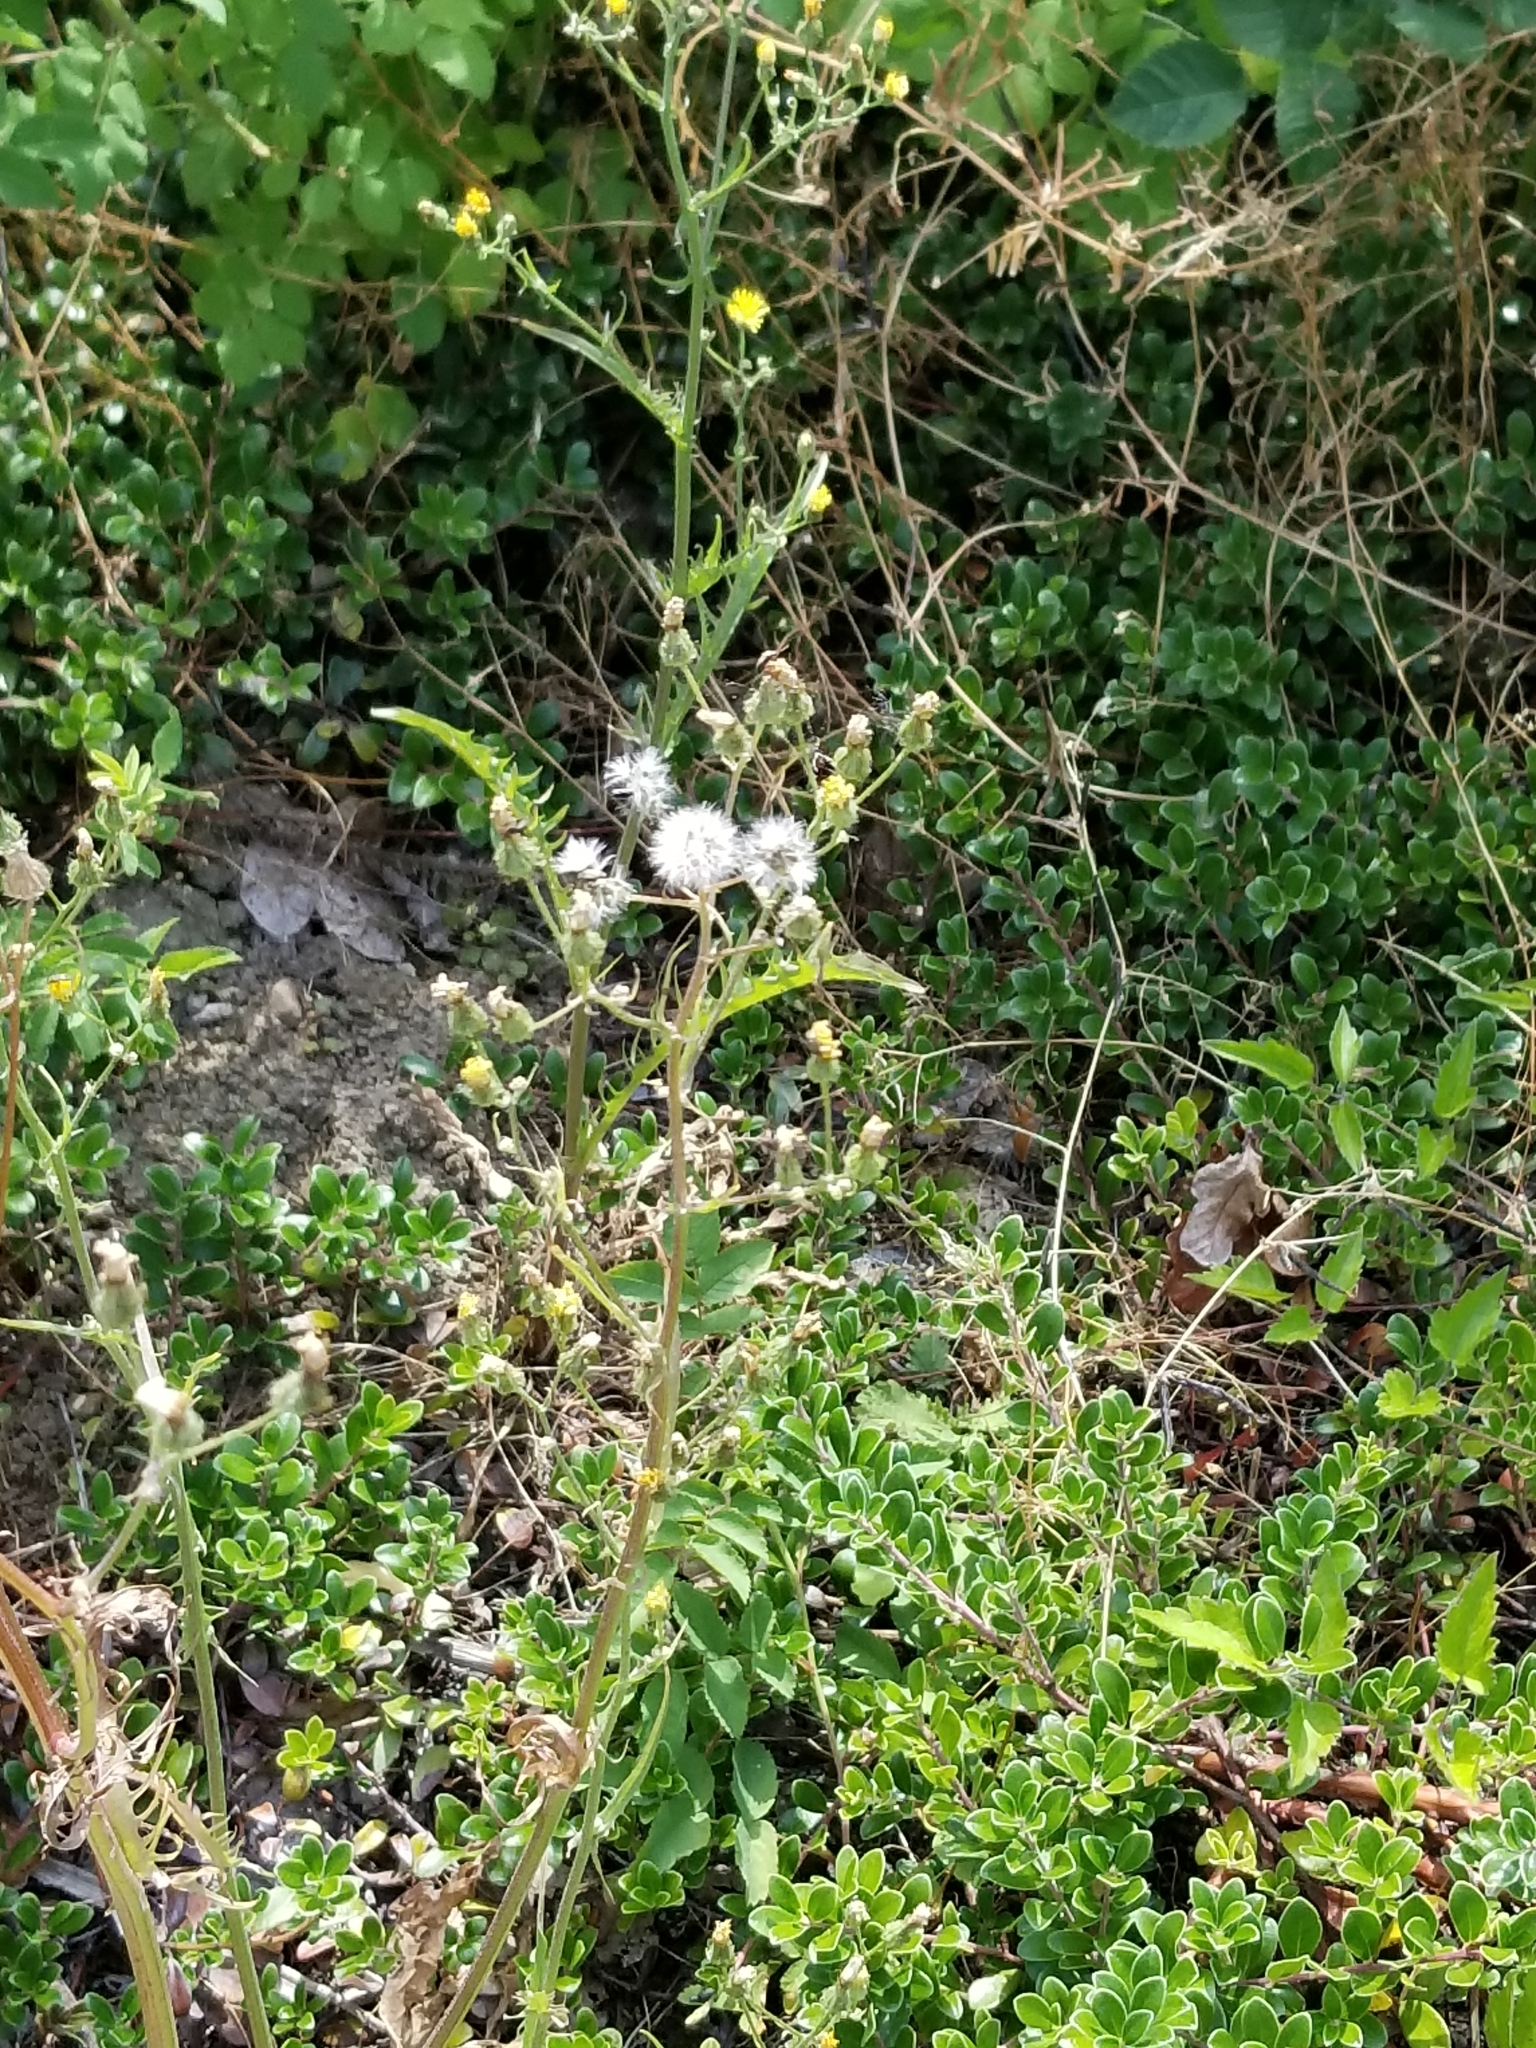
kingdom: Plantae
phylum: Tracheophyta
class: Magnoliopsida
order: Asterales
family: Asteraceae
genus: Mycelis
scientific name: Mycelis muralis
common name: Wall lettuce
